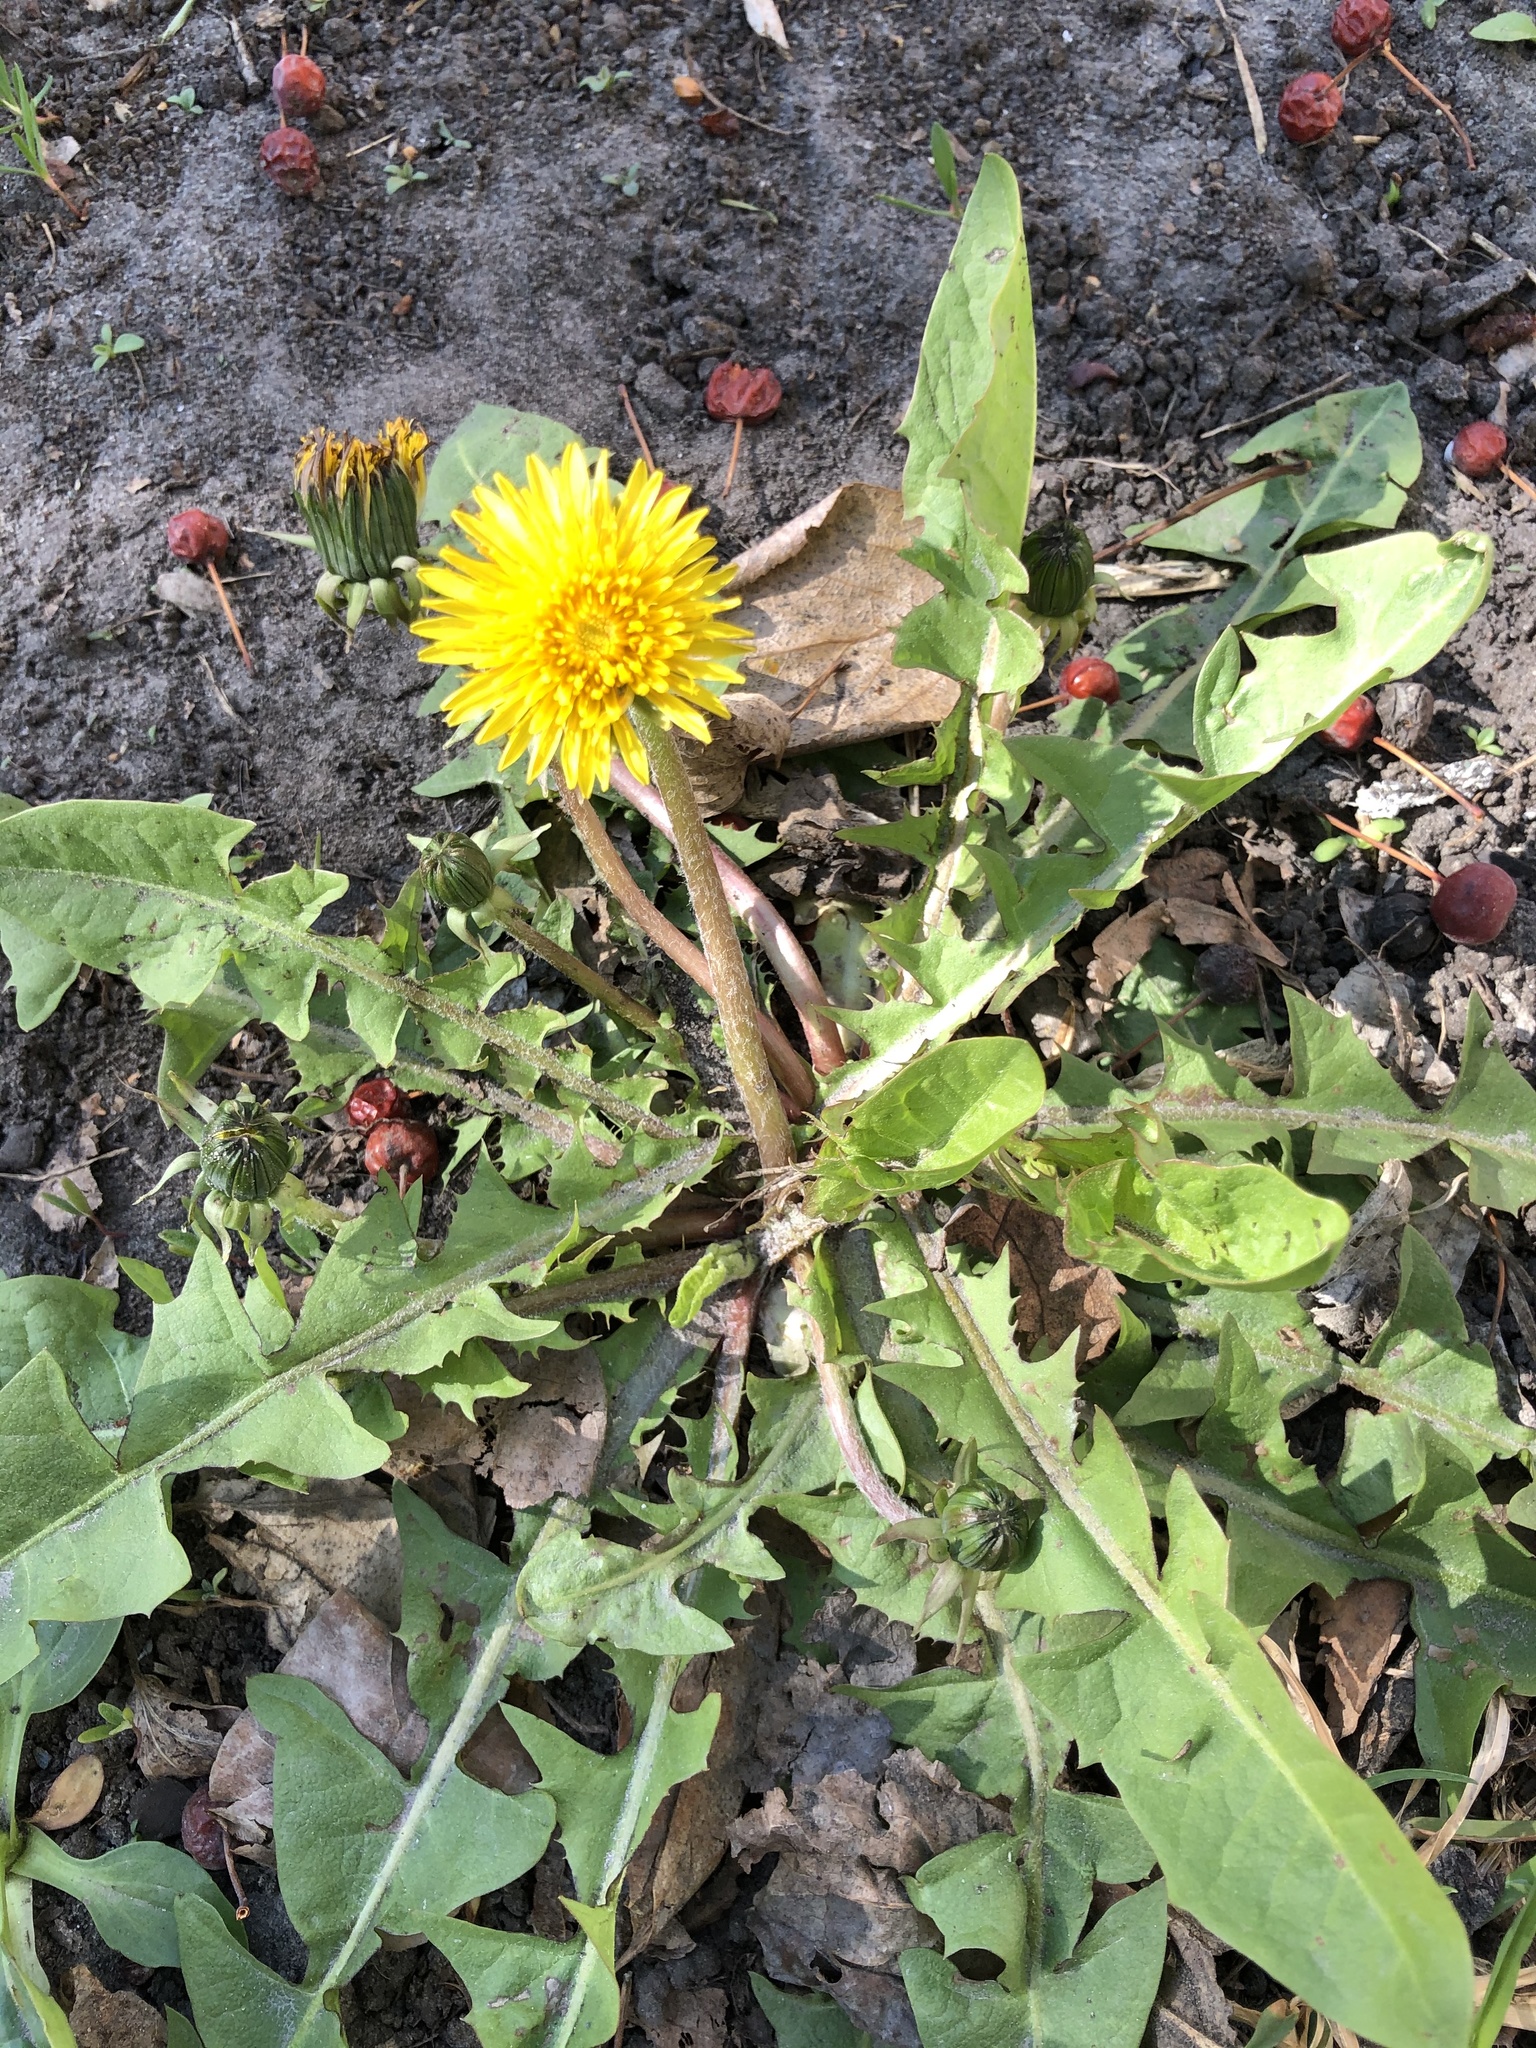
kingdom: Plantae
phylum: Tracheophyta
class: Magnoliopsida
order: Asterales
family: Asteraceae
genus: Taraxacum
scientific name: Taraxacum officinale
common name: Common dandelion
